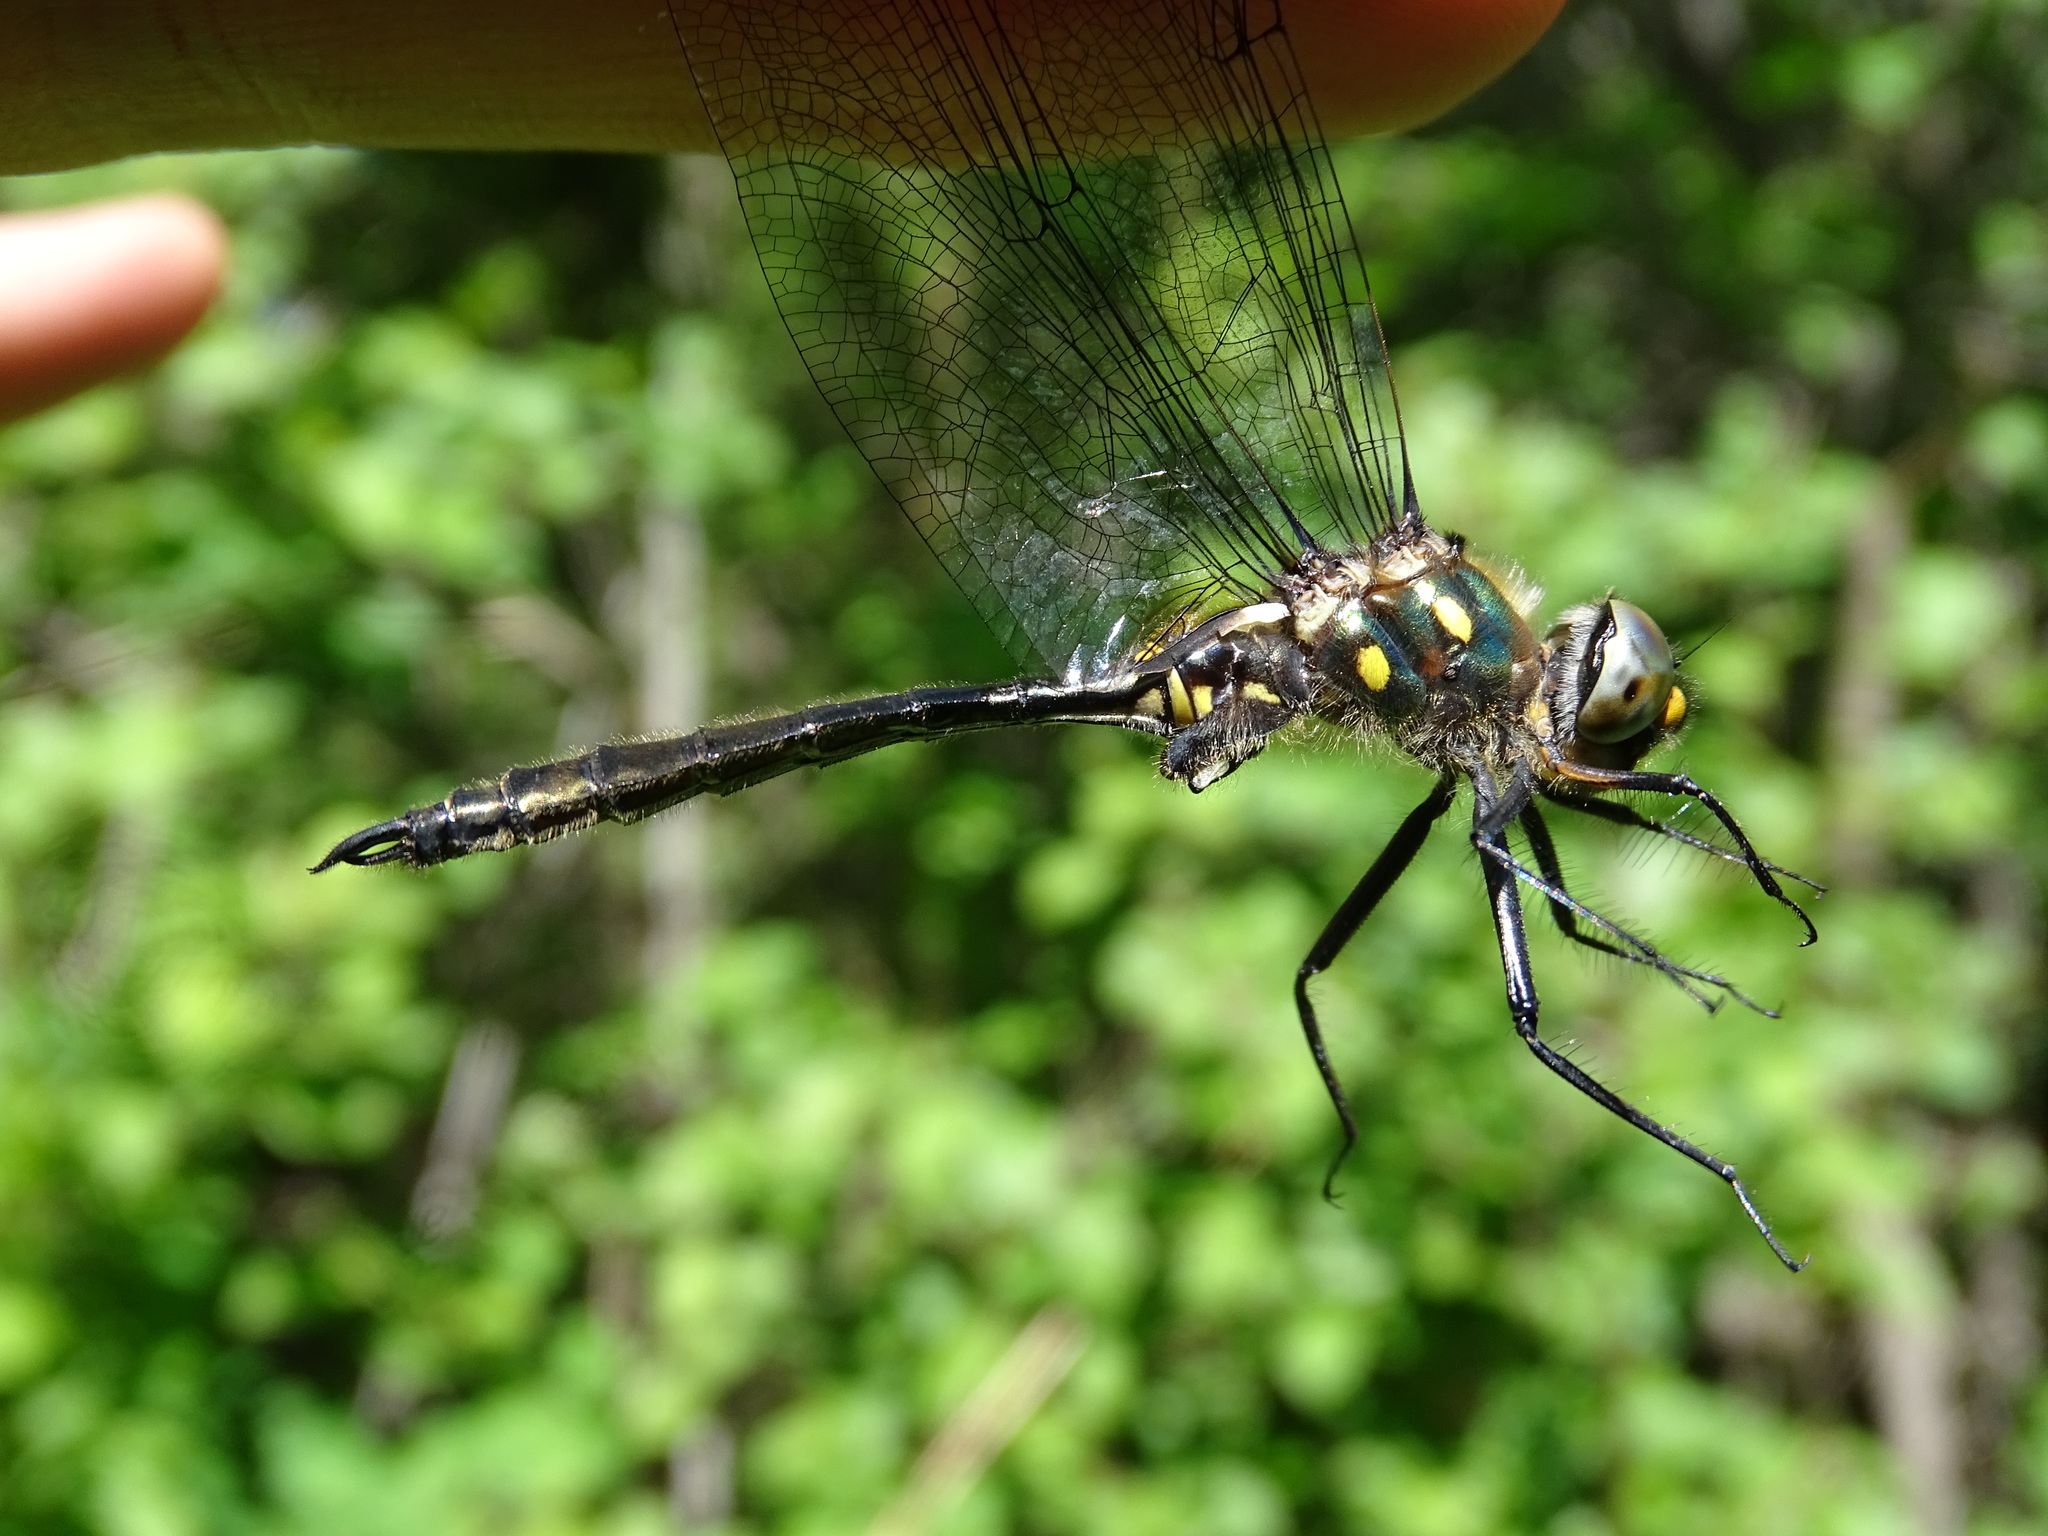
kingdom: Animalia
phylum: Arthropoda
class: Insecta
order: Odonata
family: Corduliidae
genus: Somatochlora
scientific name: Somatochlora minor
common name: Ocellated emerald
